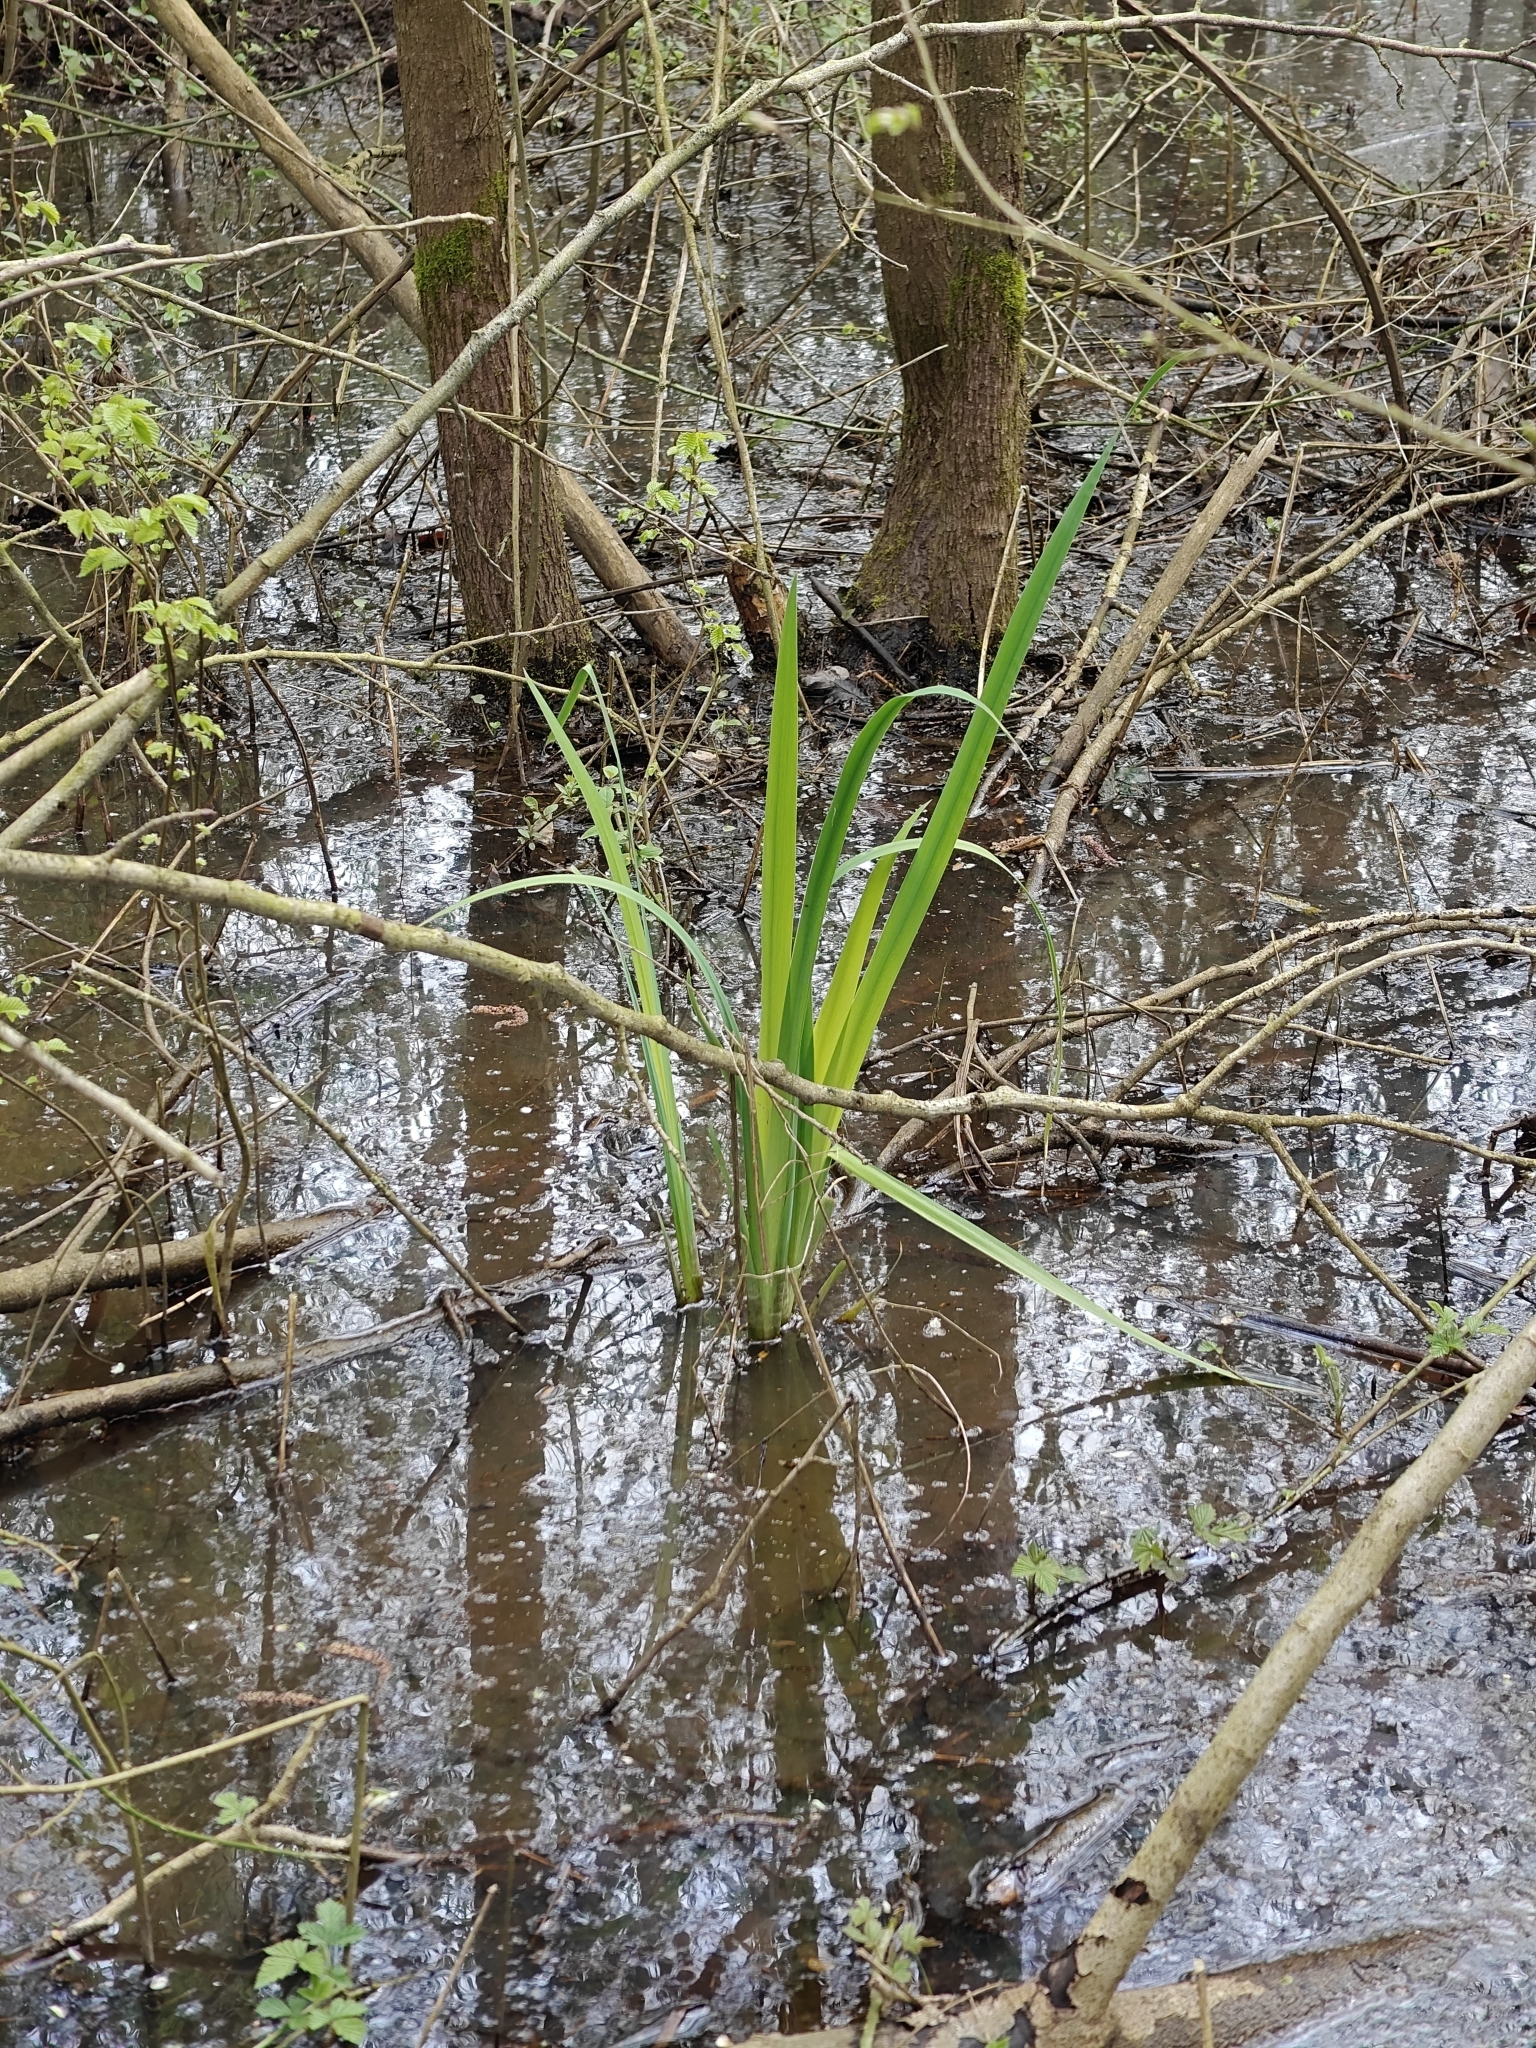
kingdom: Plantae
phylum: Tracheophyta
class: Liliopsida
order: Asparagales
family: Iridaceae
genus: Iris
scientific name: Iris pseudacorus
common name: Yellow flag
